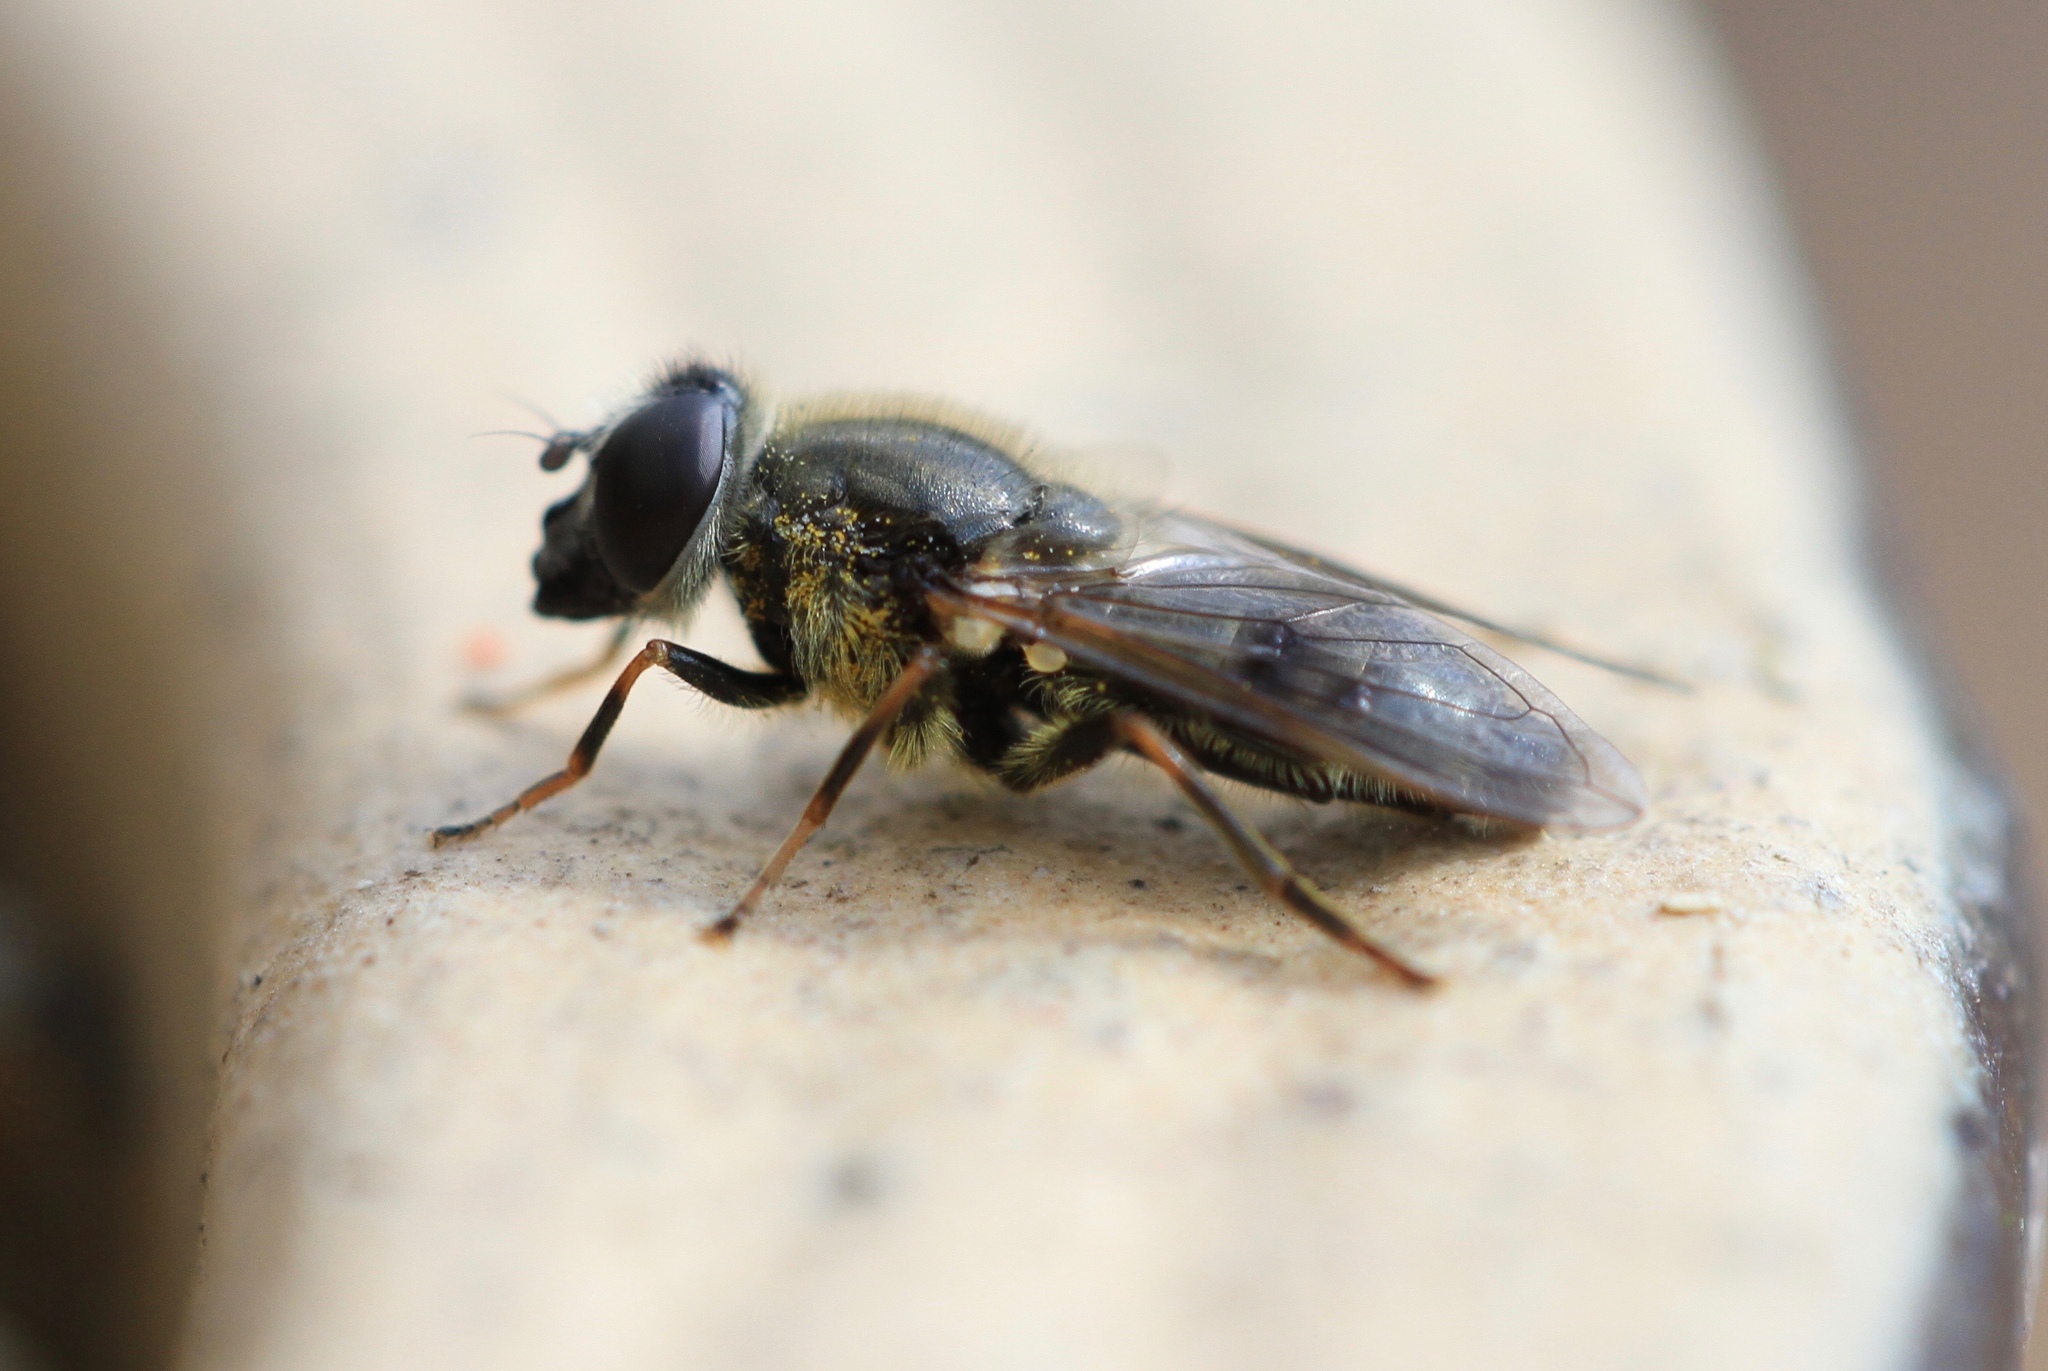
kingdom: Animalia
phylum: Arthropoda
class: Insecta
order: Diptera
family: Syrphidae
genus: Cheilosia
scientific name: Cheilosia caerulescens
